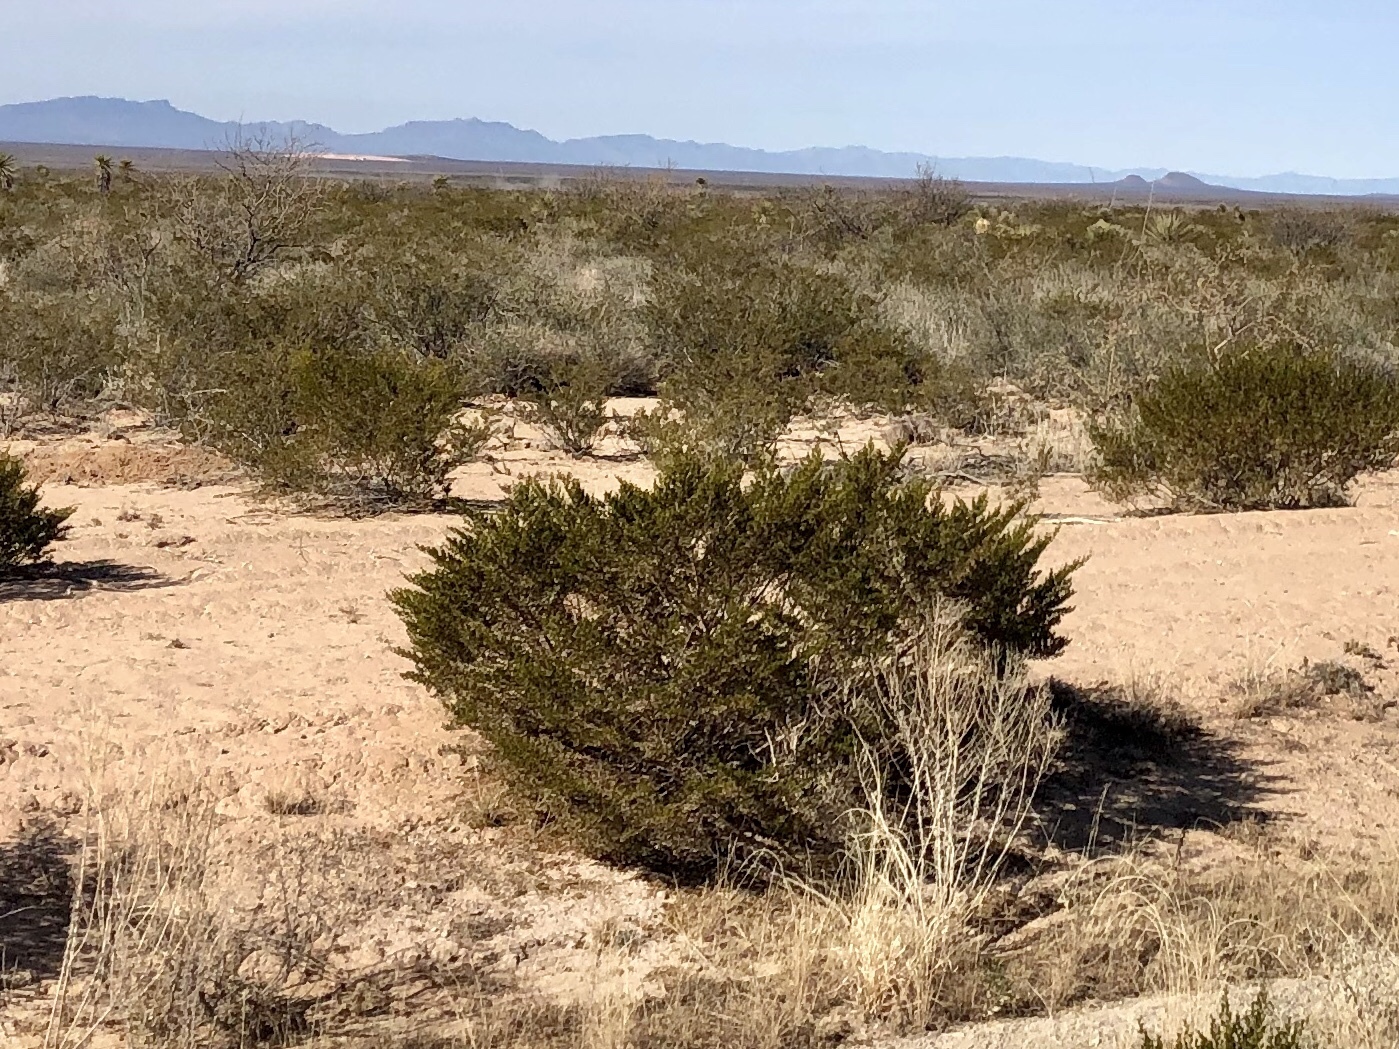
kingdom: Plantae
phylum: Tracheophyta
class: Magnoliopsida
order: Zygophyllales
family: Zygophyllaceae
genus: Larrea
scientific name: Larrea tridentata
